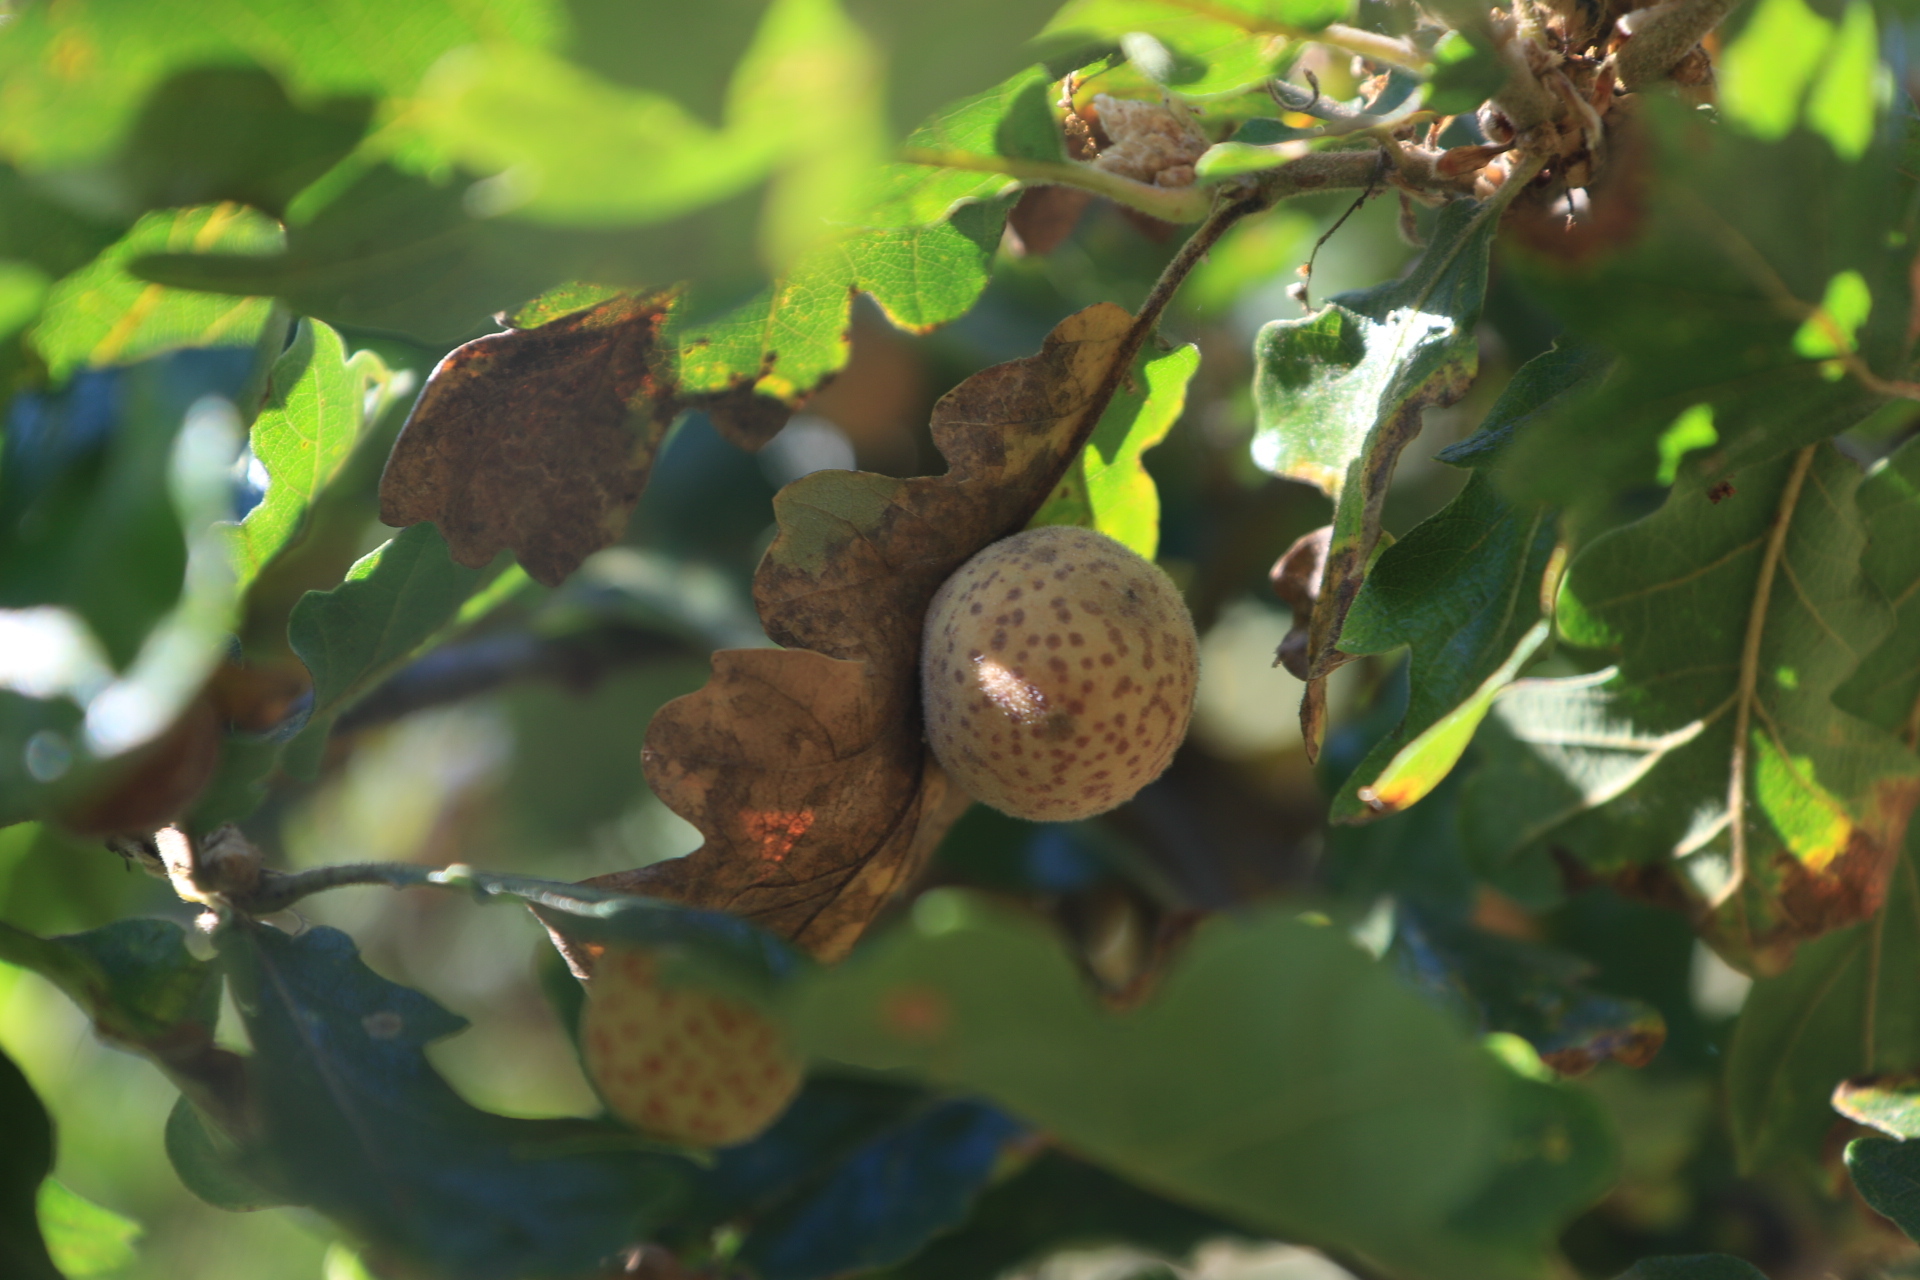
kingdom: Animalia
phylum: Arthropoda
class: Insecta
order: Hymenoptera
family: Cynipidae
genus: Cynips
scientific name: Cynips
